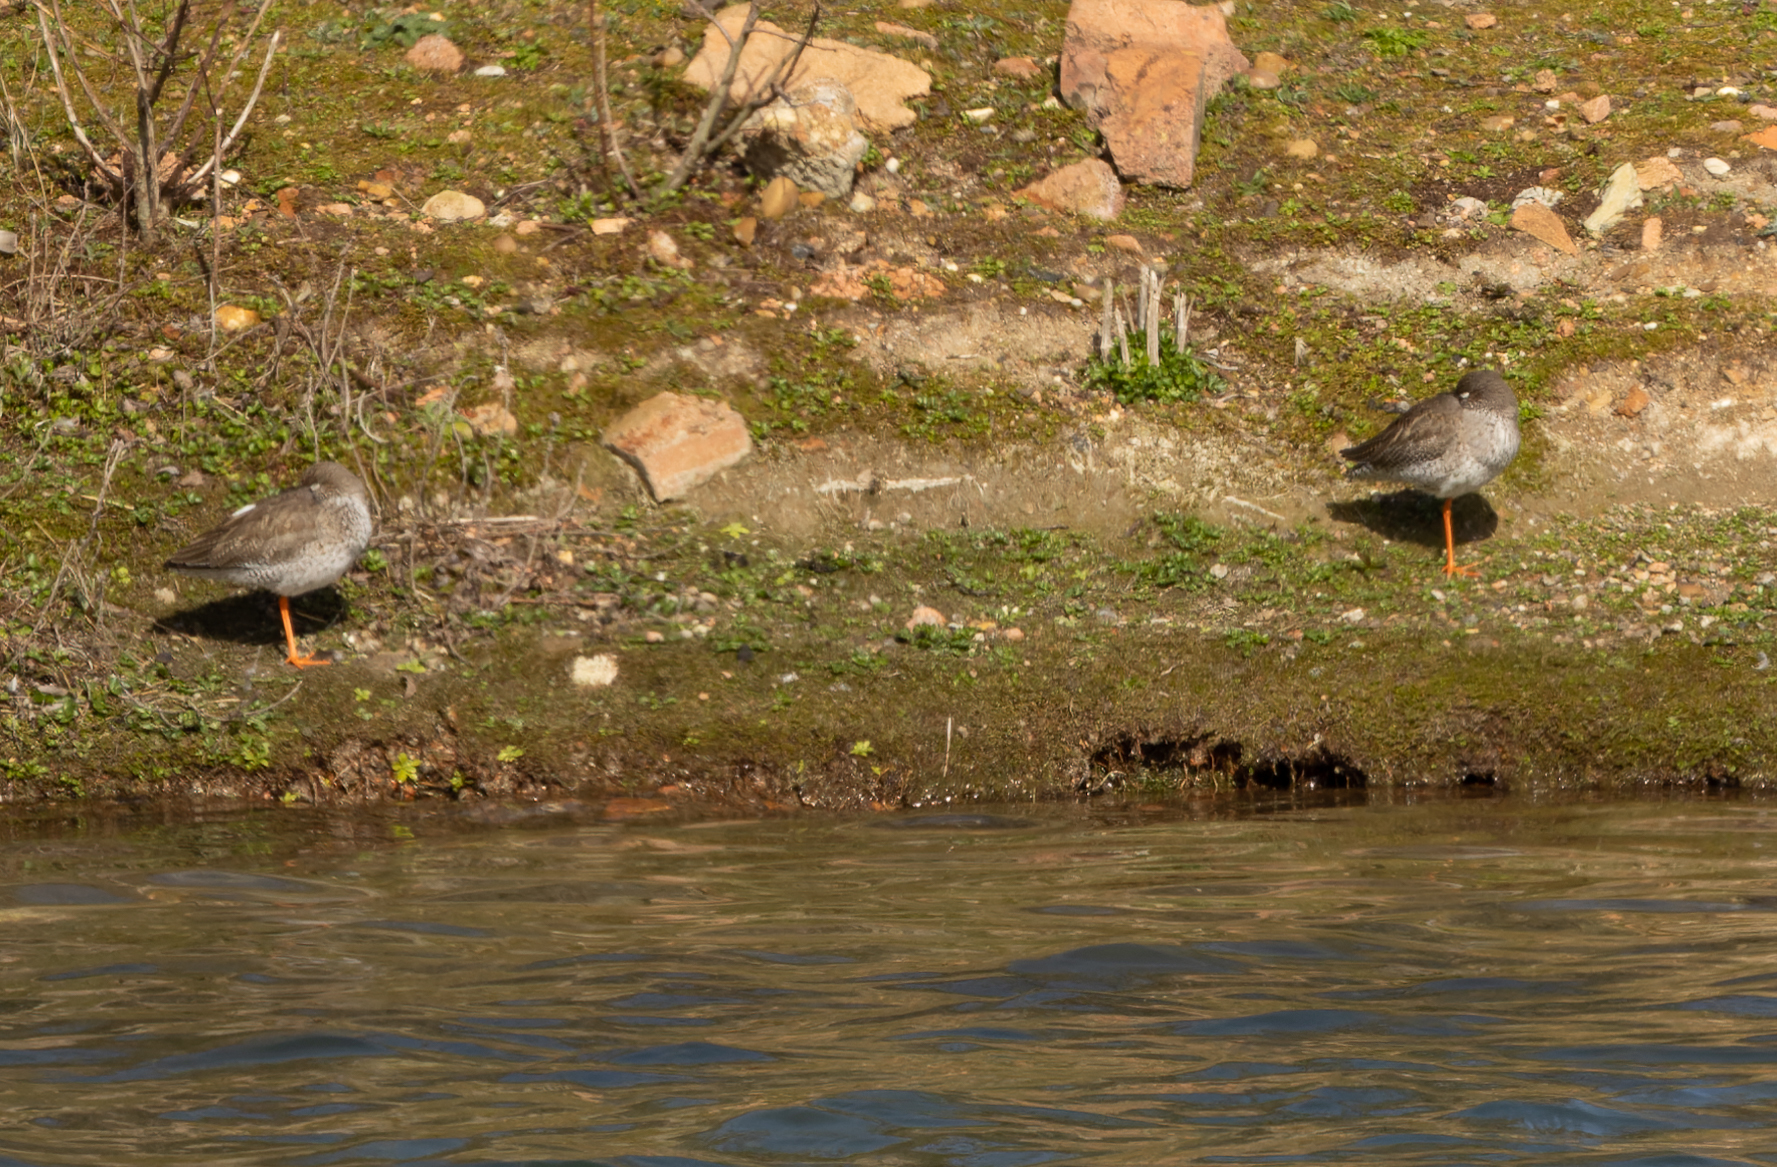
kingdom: Animalia
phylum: Chordata
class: Aves
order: Charadriiformes
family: Scolopacidae
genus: Tringa
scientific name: Tringa totanus
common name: Common redshank
